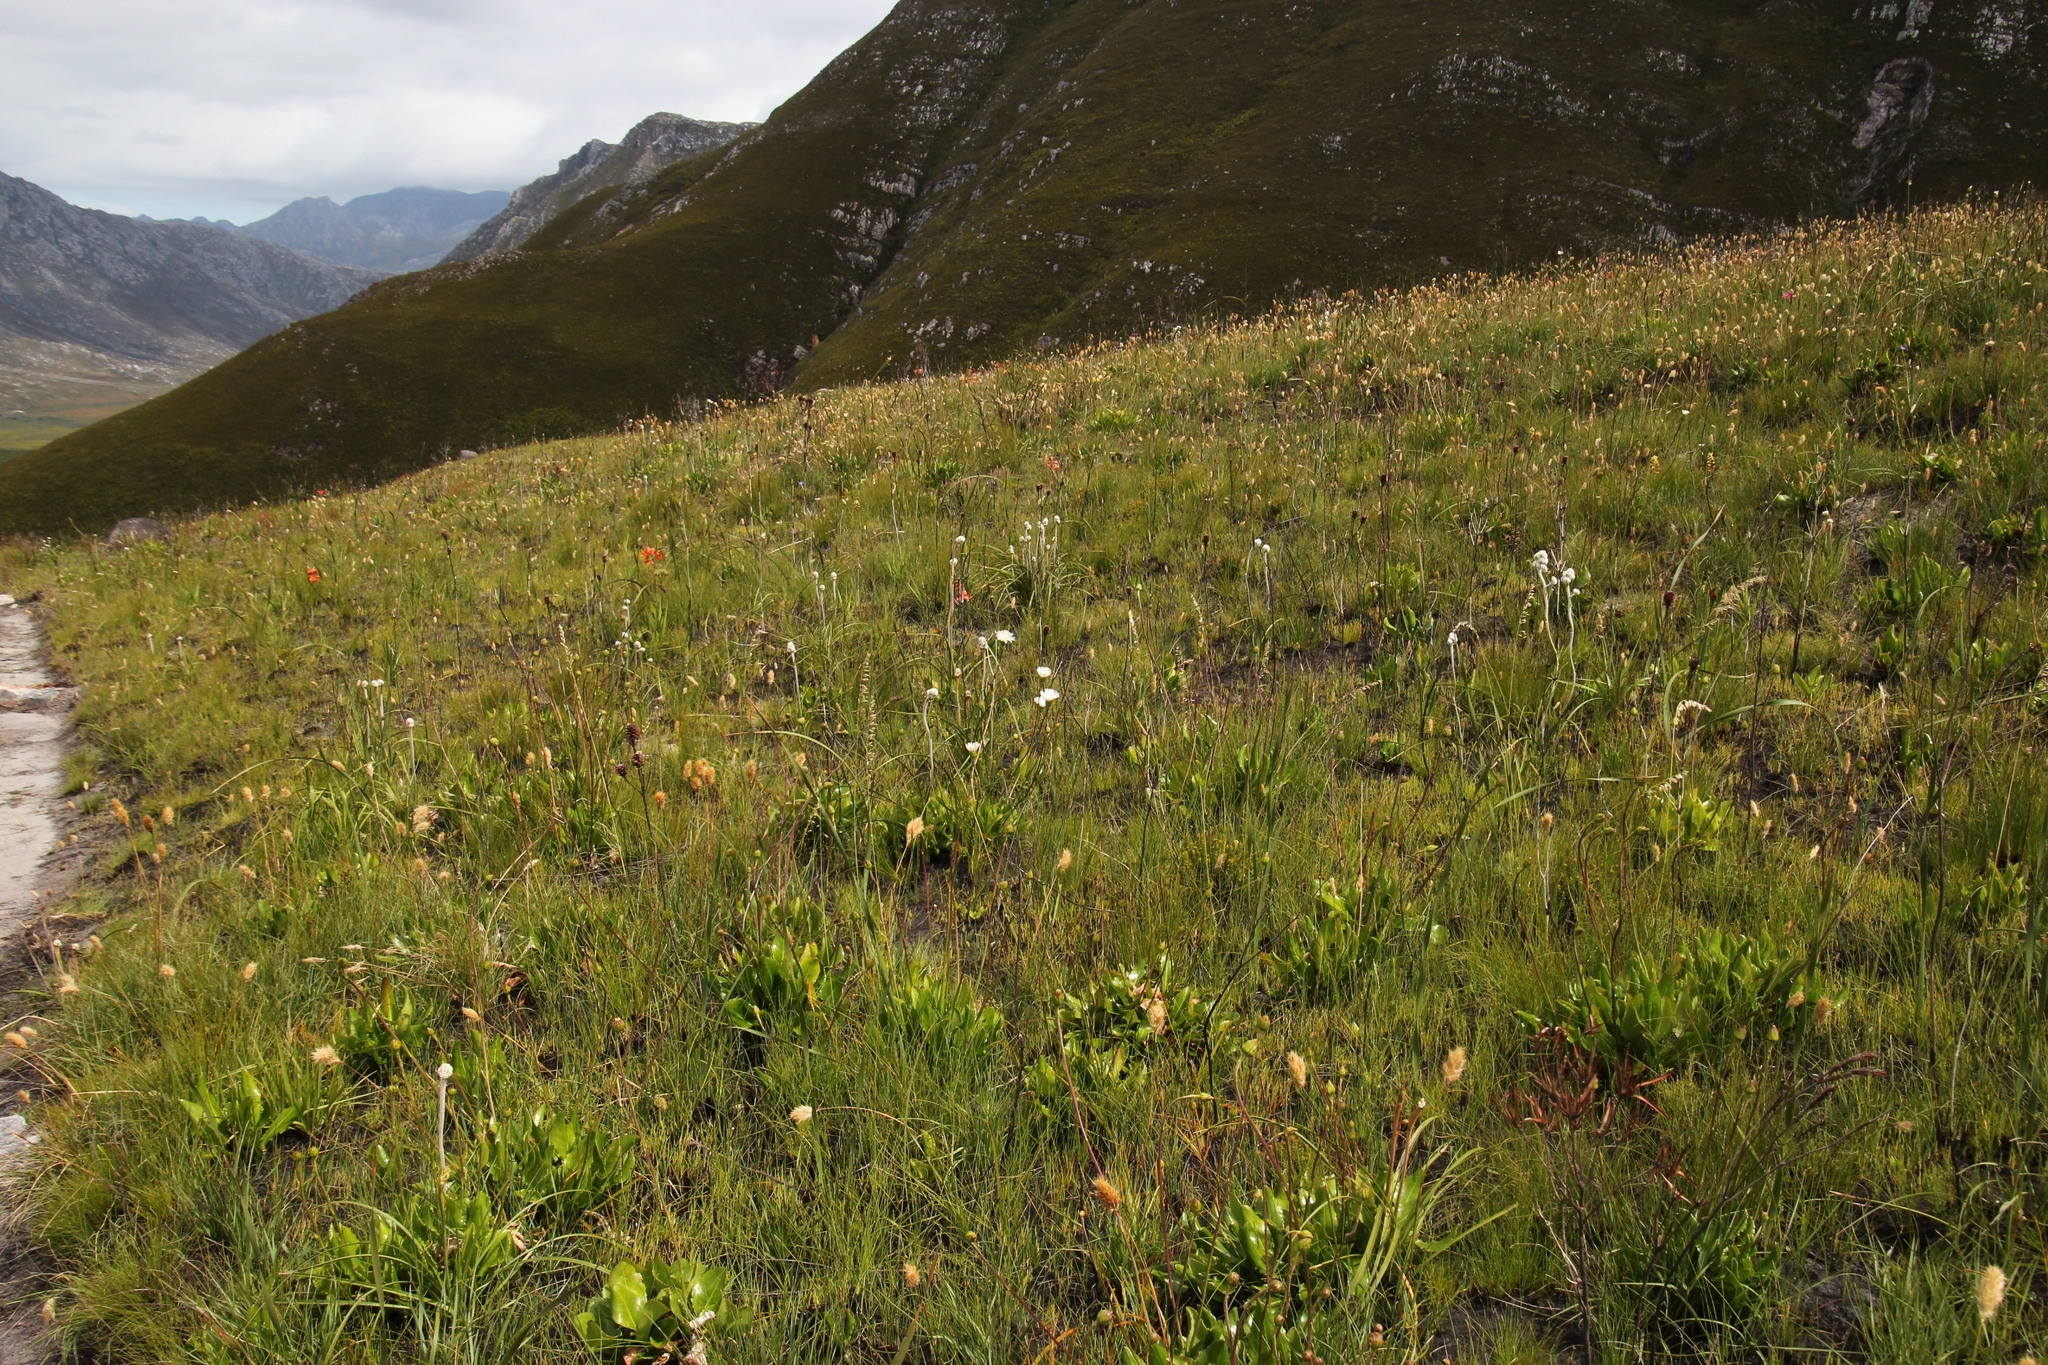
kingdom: Plantae
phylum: Tracheophyta
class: Magnoliopsida
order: Asterales
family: Asteraceae
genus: Gerbera
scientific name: Gerbera crocea
